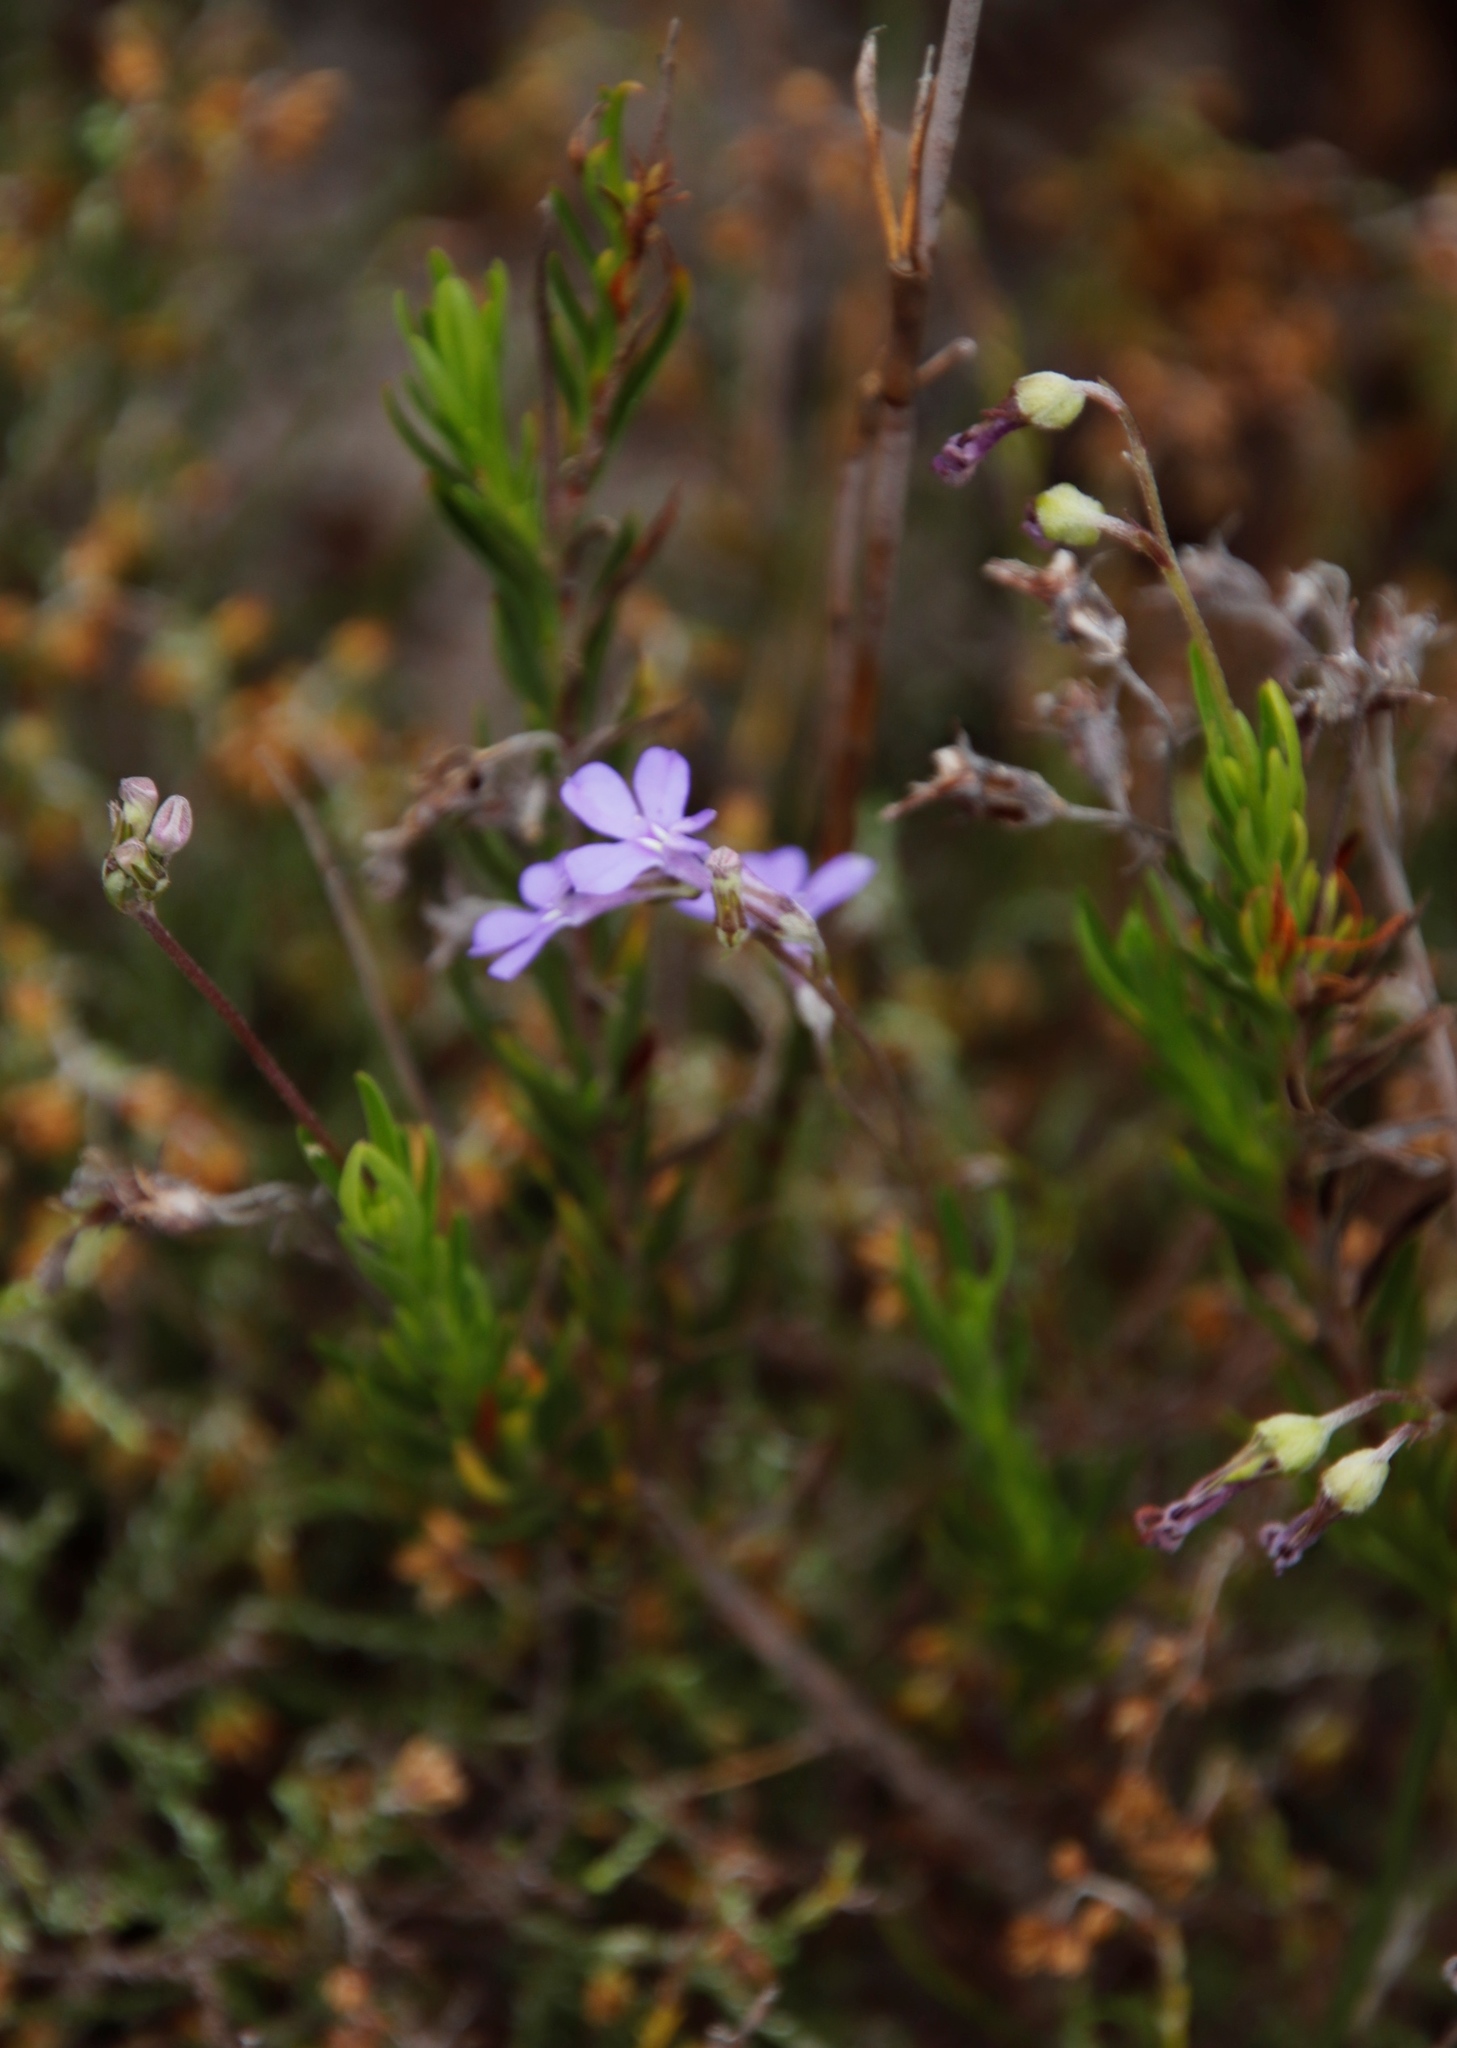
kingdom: Plantae
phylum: Tracheophyta
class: Magnoliopsida
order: Asterales
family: Campanulaceae
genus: Lobelia
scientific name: Lobelia pinifolia
